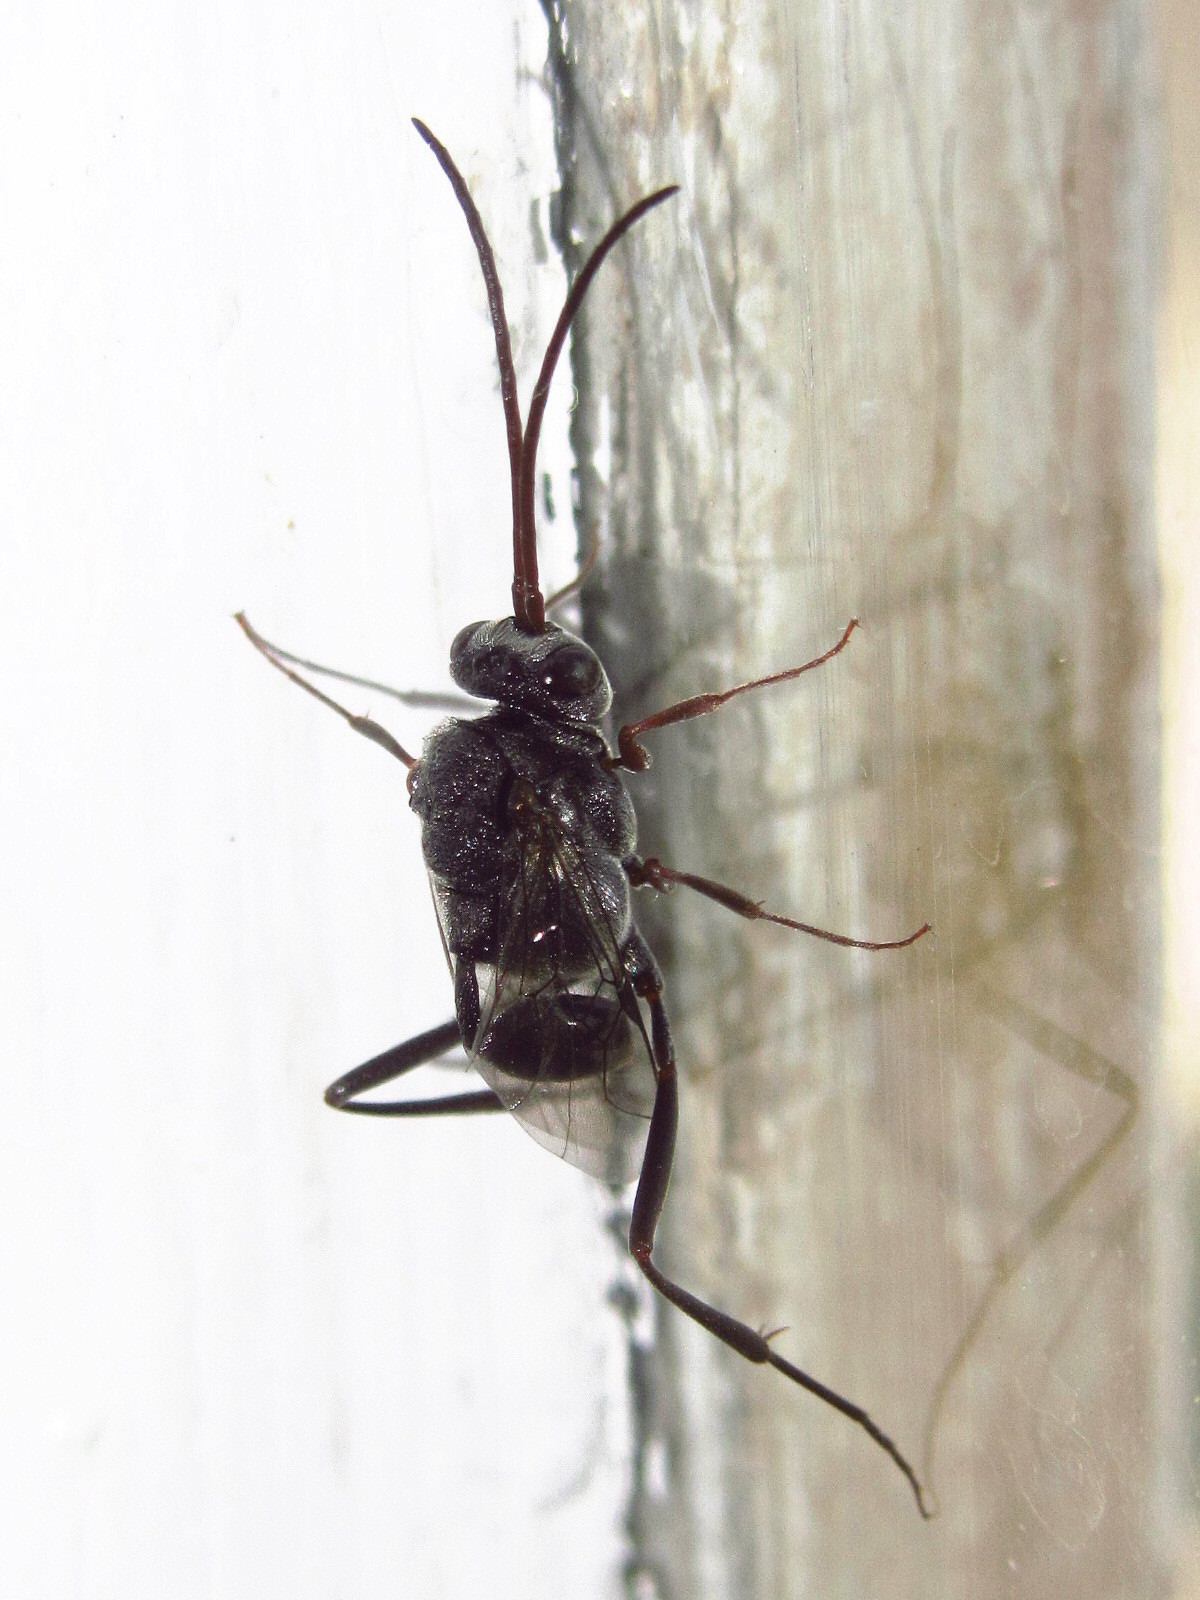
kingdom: Animalia
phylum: Arthropoda
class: Insecta
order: Hymenoptera
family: Evaniidae
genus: Prosevania
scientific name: Prosevania fuscipes
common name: Ensign wasp
